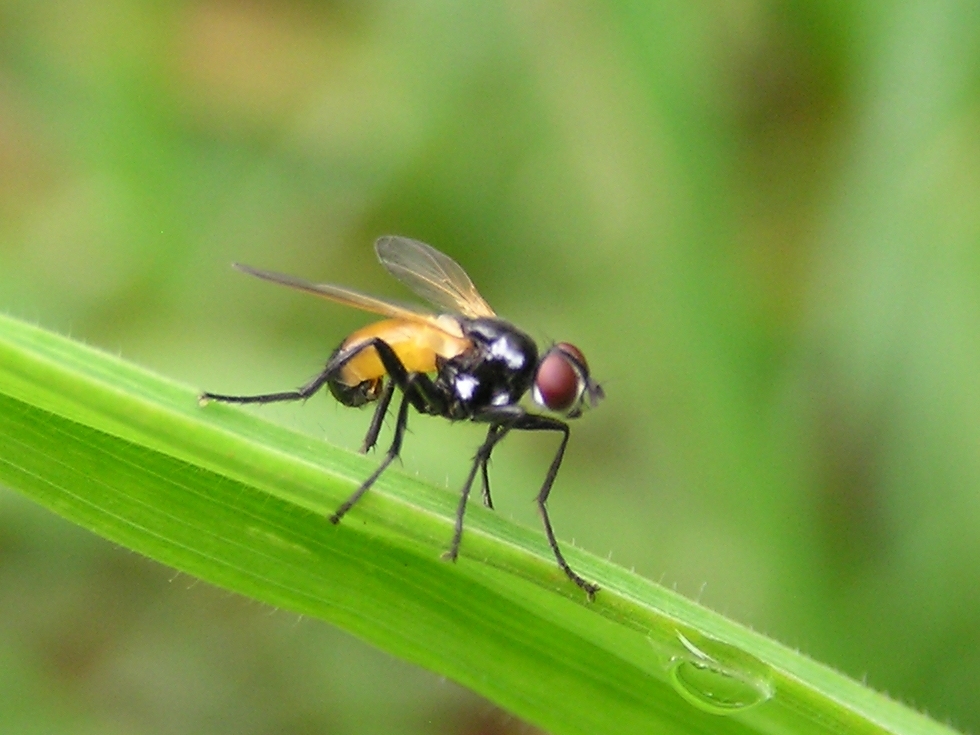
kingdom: Animalia
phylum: Arthropoda
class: Insecta
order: Diptera
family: Tachinidae
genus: Huttonobesseria
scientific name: Huttonobesseria verecunda
